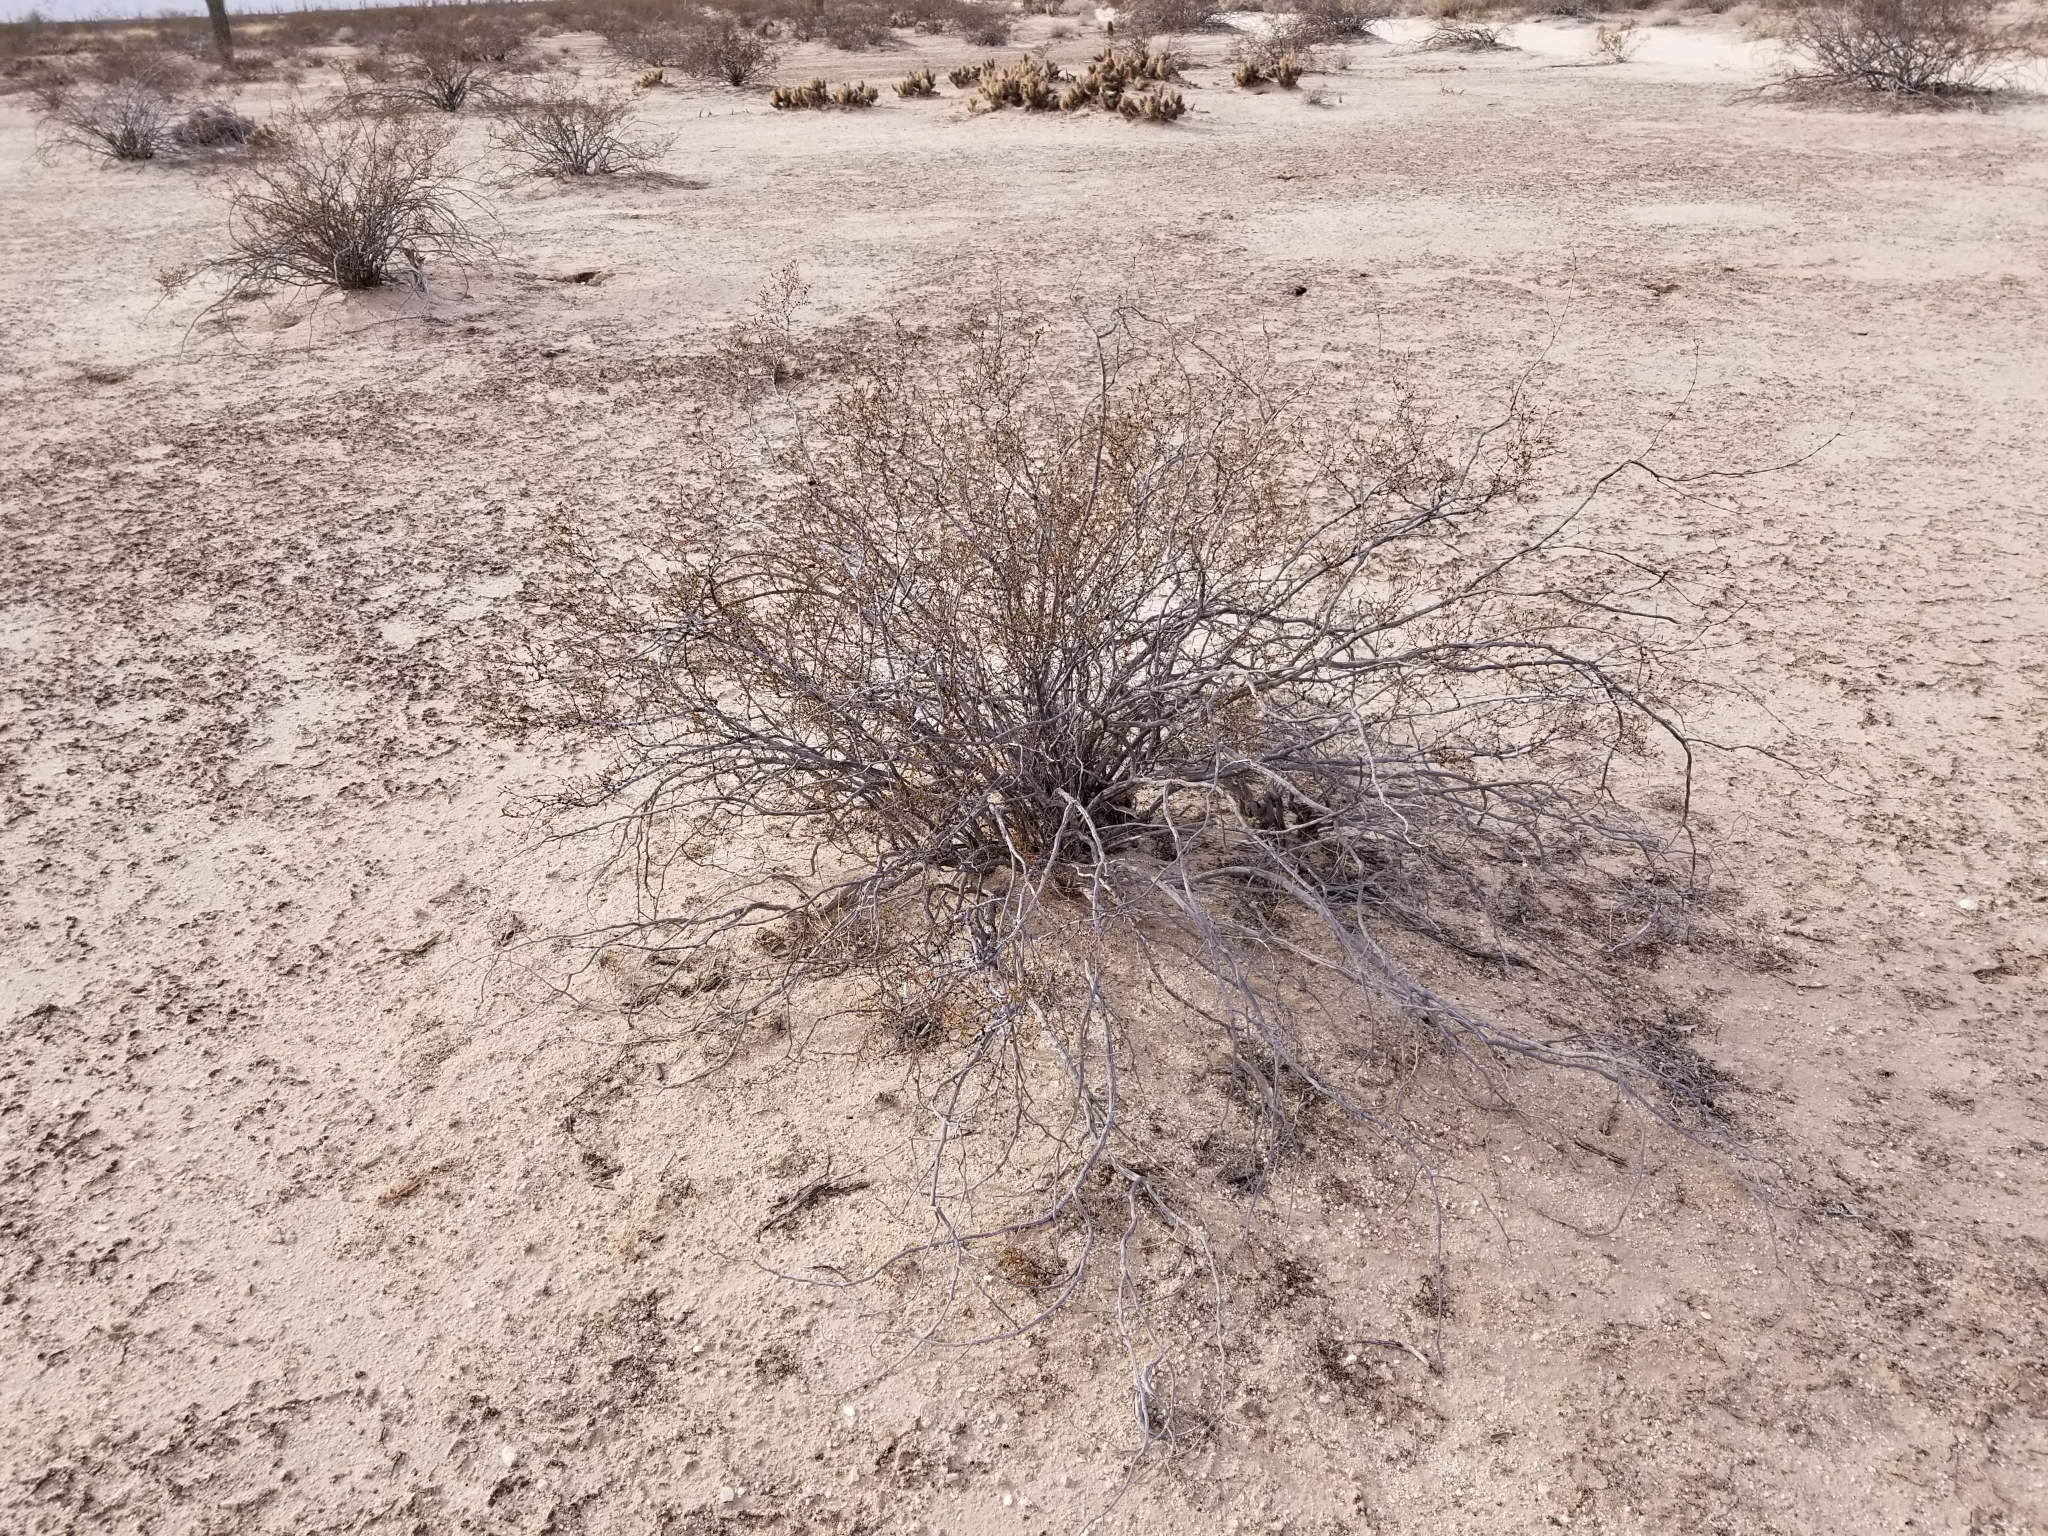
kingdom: Plantae
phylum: Tracheophyta
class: Magnoliopsida
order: Zygophyllales
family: Zygophyllaceae
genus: Larrea
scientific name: Larrea tridentata
